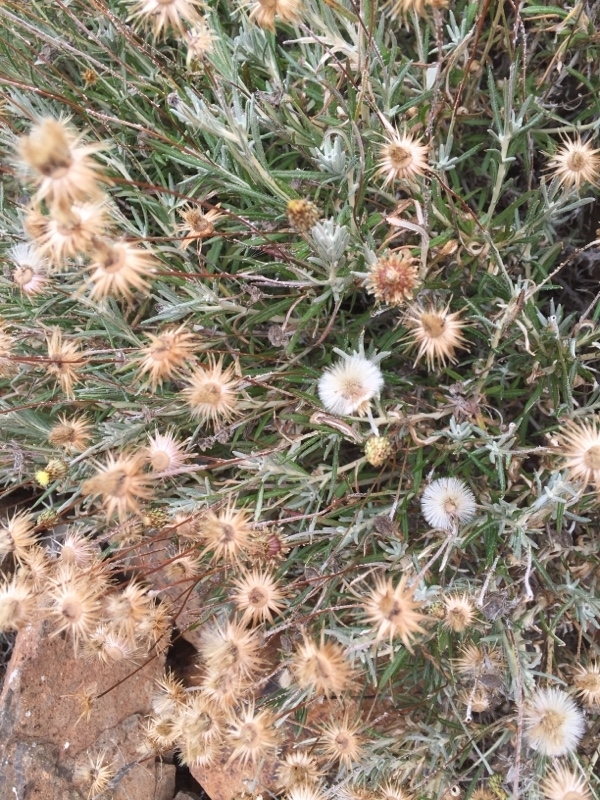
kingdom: Plantae
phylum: Tracheophyta
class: Magnoliopsida
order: Asterales
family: Asteraceae
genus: Phagnalon
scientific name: Phagnalon saxatile
